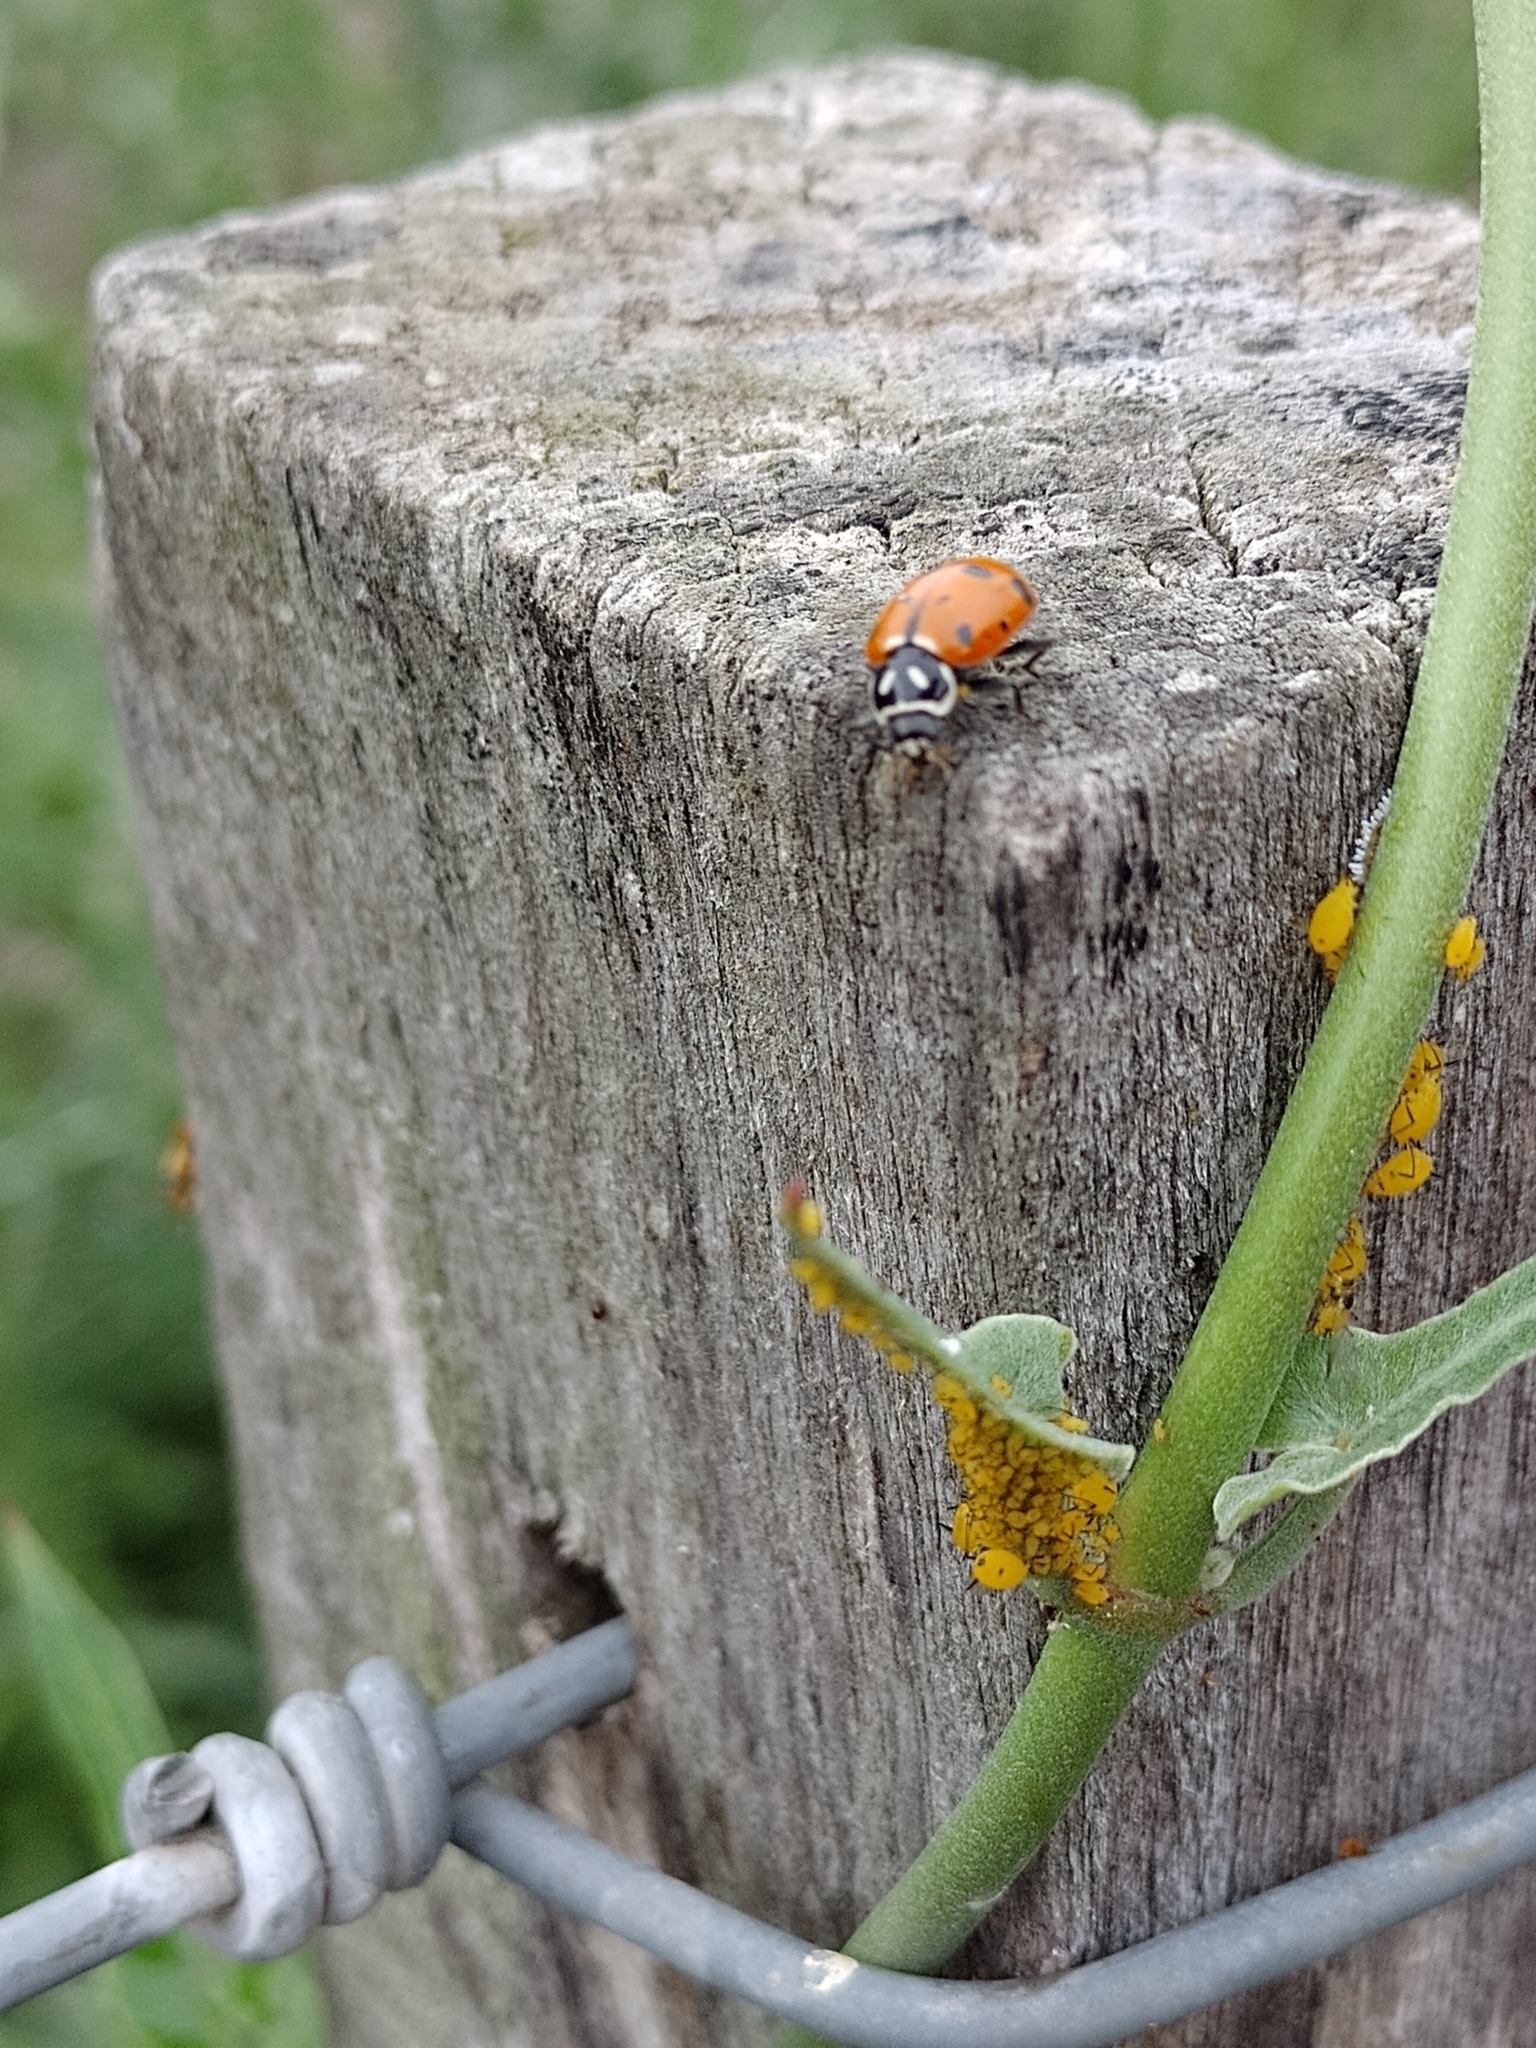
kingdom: Animalia
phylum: Arthropoda
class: Insecta
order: Hemiptera
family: Aphididae
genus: Aphis
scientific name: Aphis nerii
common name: Oleander aphid
